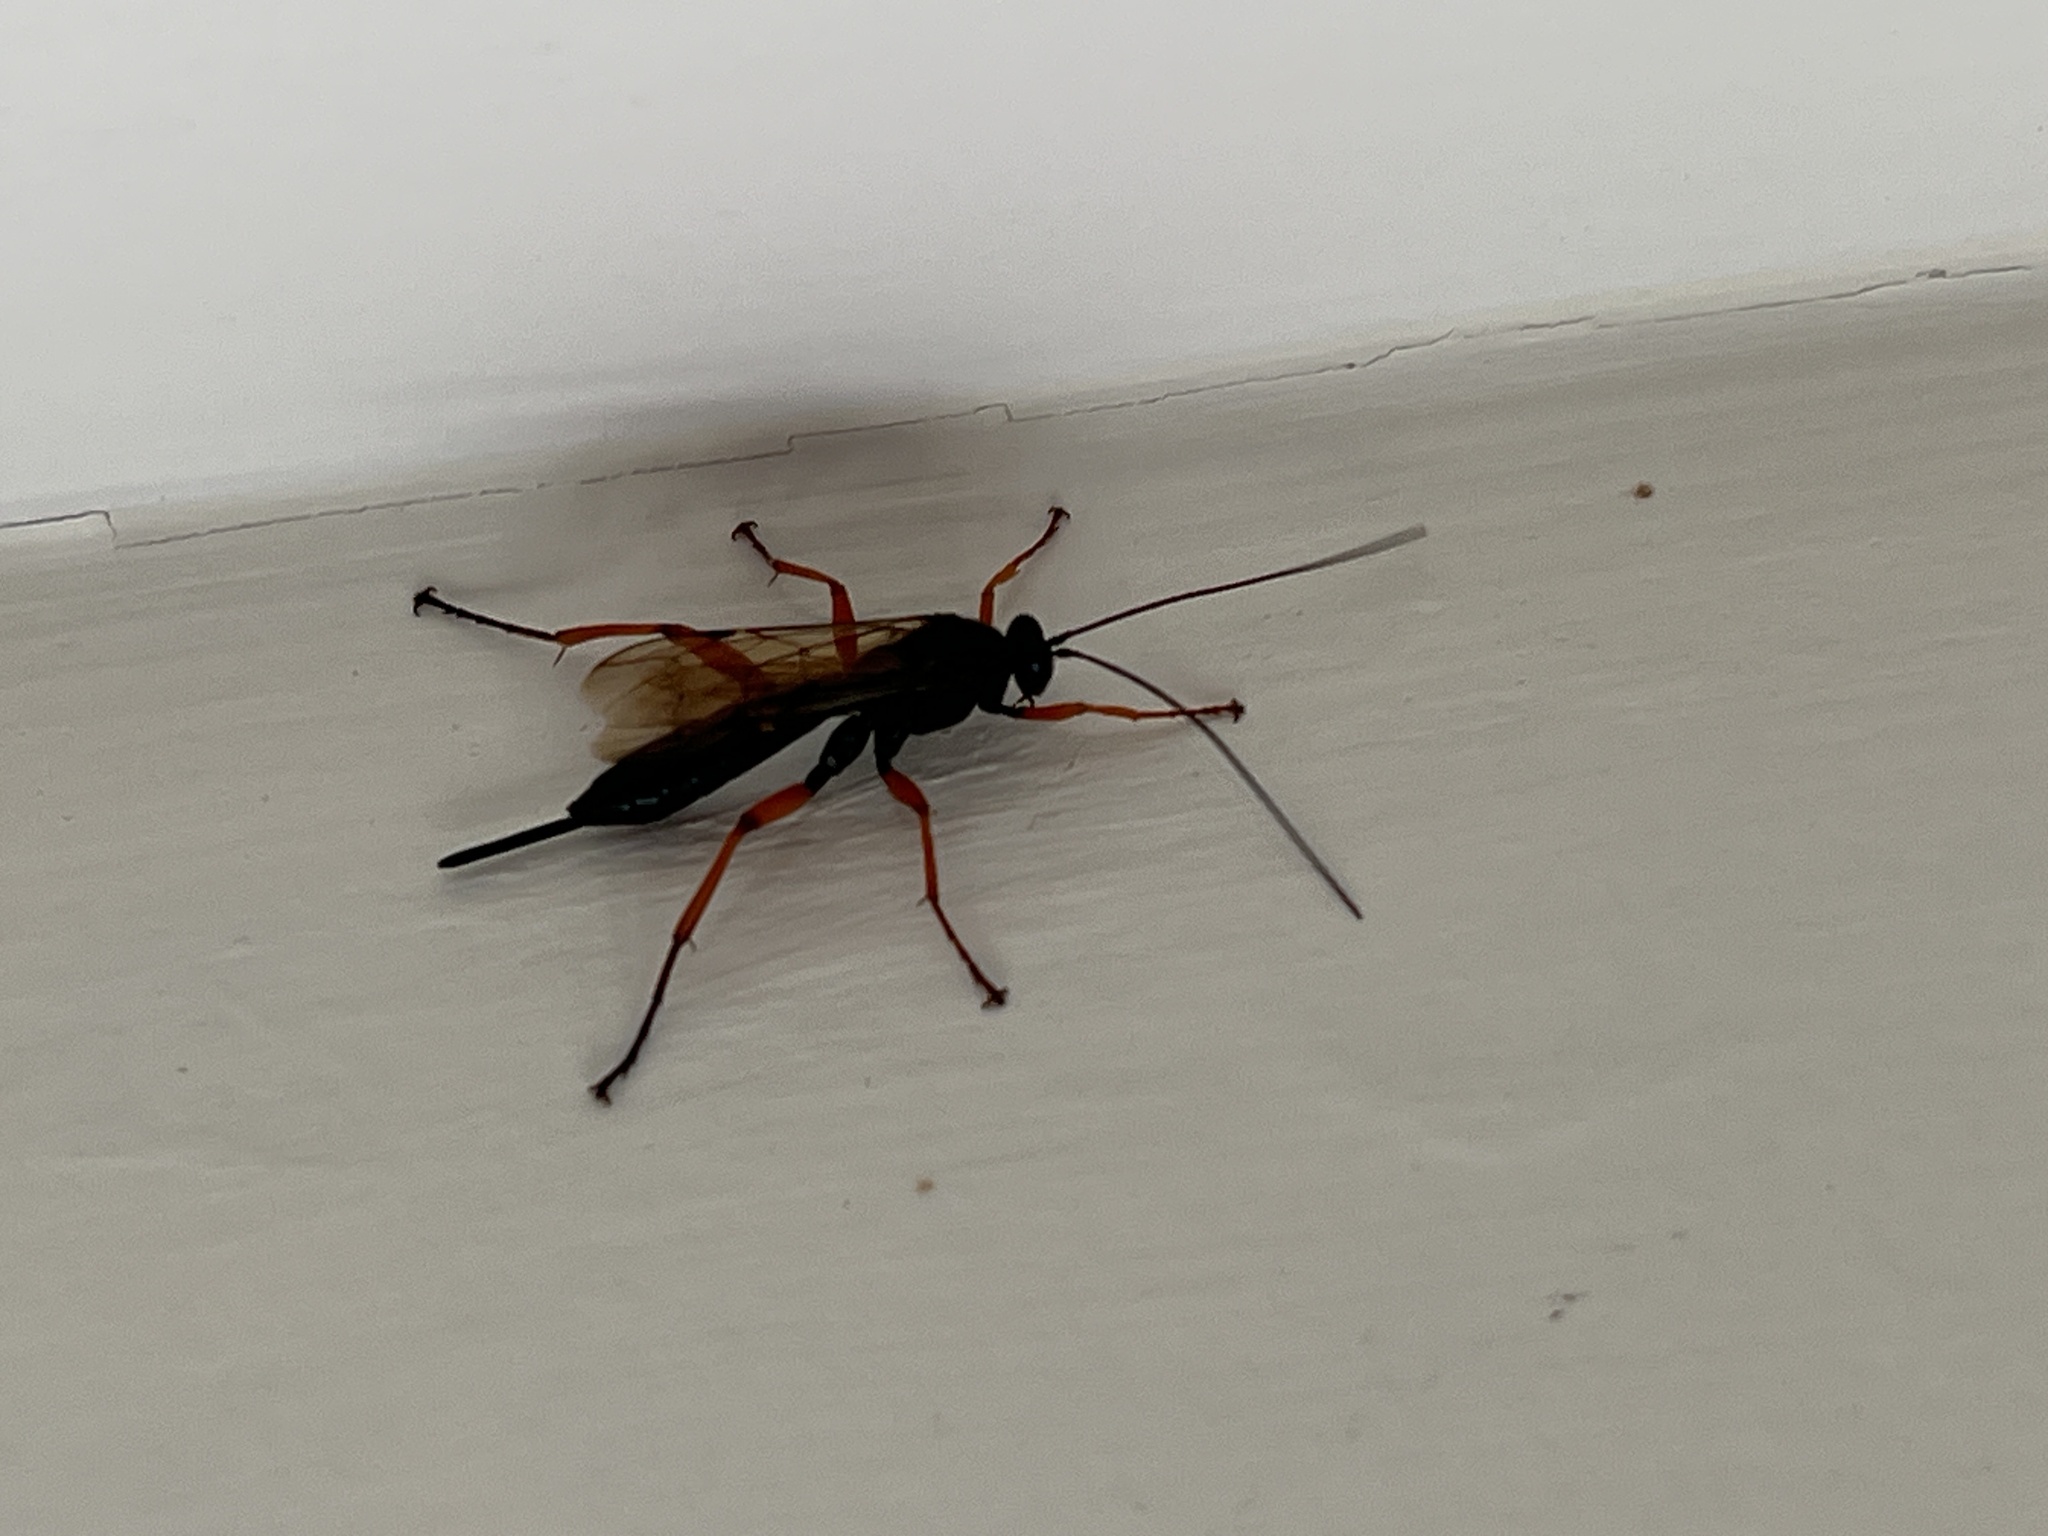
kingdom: Animalia
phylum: Arthropoda
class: Insecta
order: Hymenoptera
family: Ichneumonidae
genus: Pimpla
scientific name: Pimpla rufipes
